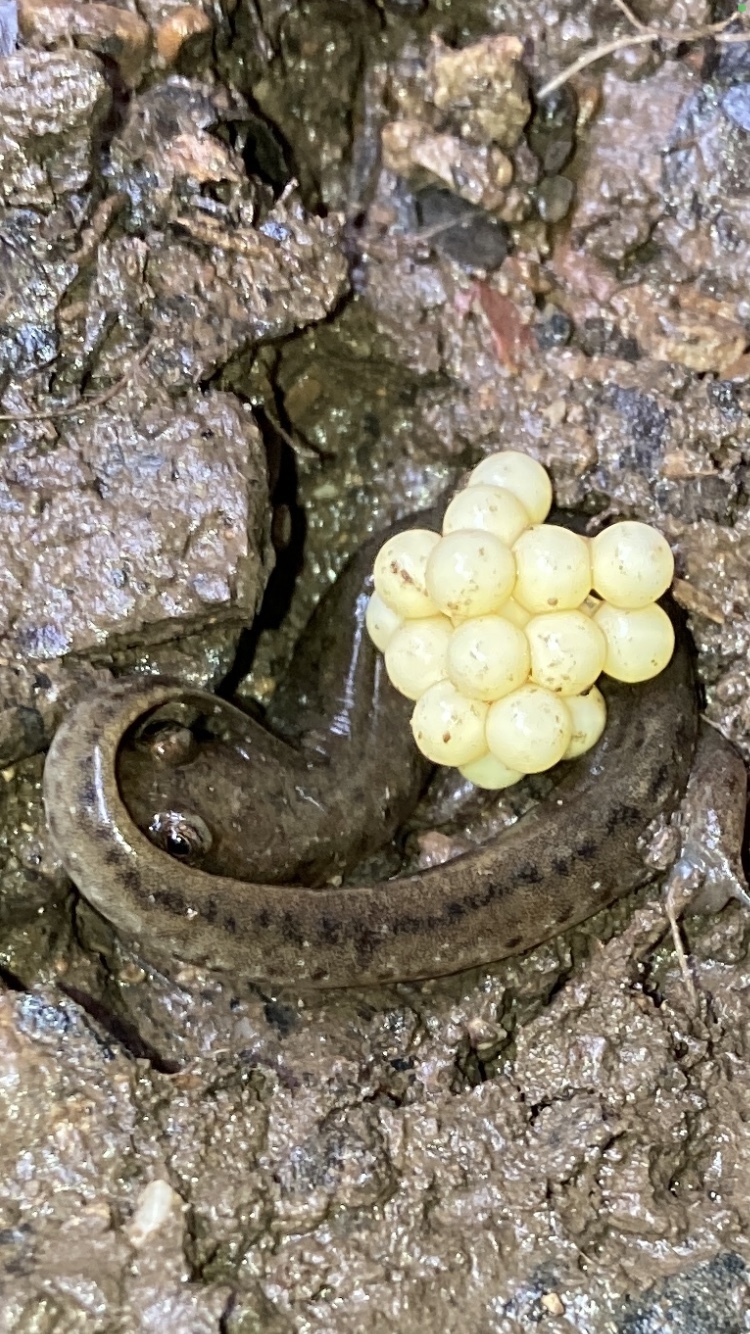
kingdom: Animalia
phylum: Chordata
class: Amphibia
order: Caudata
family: Plethodontidae
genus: Desmognathus
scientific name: Desmognathus fuscus
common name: Northern dusky salamander
